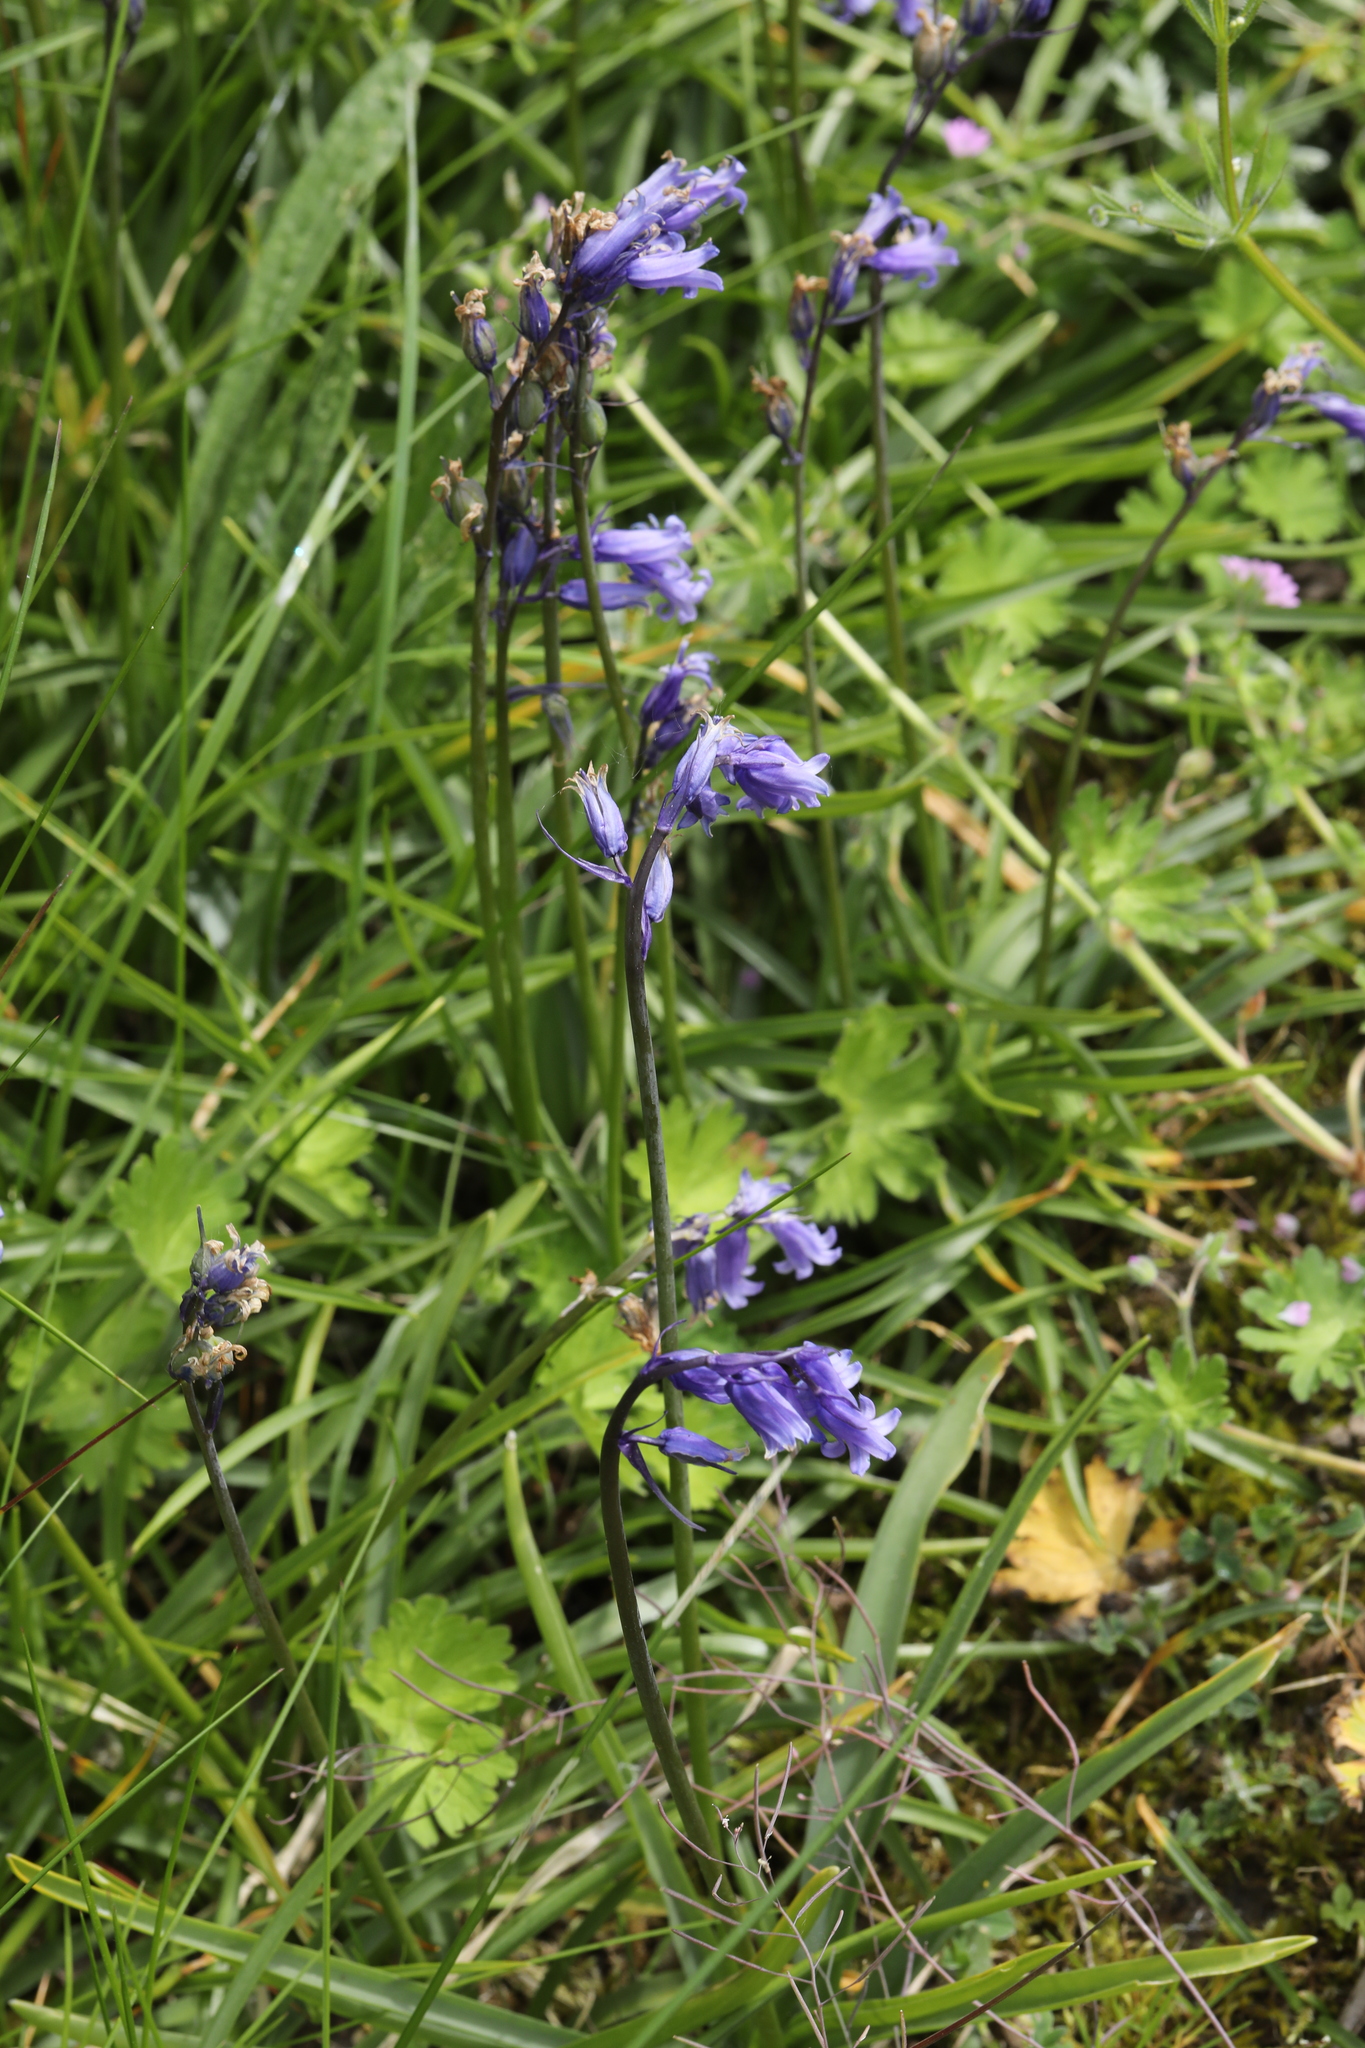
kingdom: Plantae
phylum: Tracheophyta
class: Liliopsida
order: Asparagales
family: Asparagaceae
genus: Hyacinthoides
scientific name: Hyacinthoides non-scripta
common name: Bluebell
